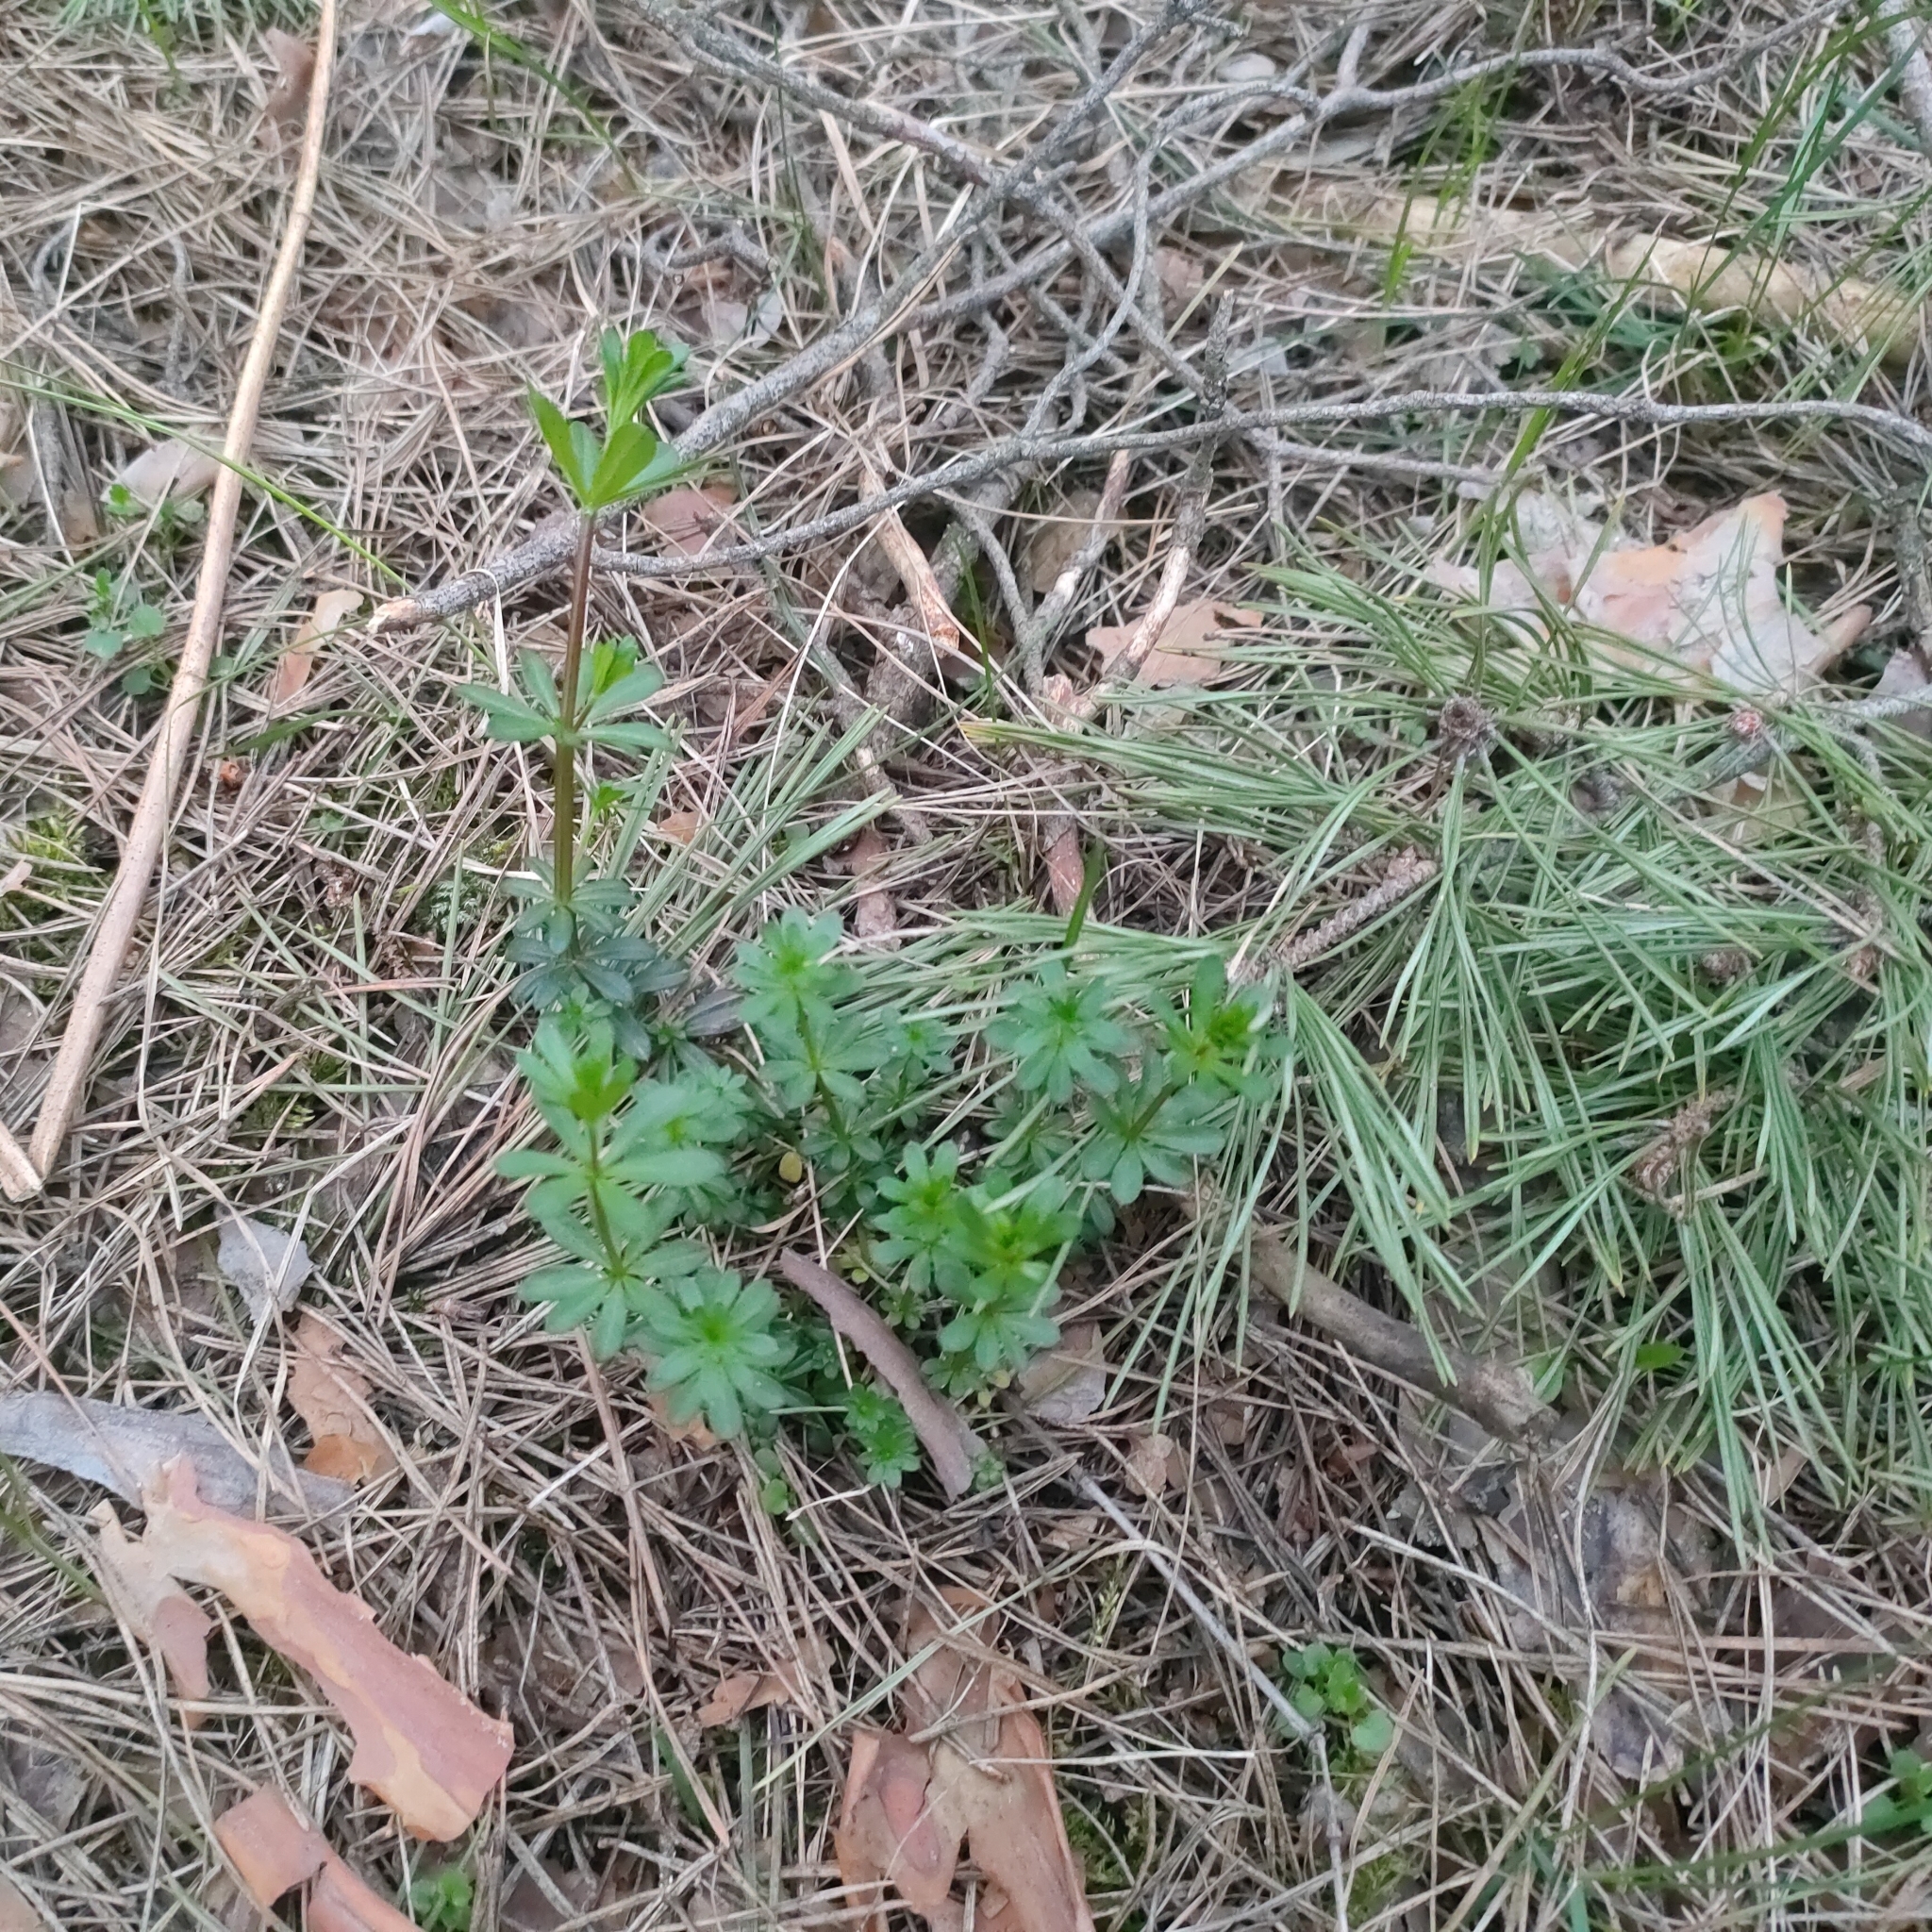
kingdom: Plantae
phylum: Tracheophyta
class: Magnoliopsida
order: Gentianales
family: Rubiaceae
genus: Galium
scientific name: Galium mollugo
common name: Hedge bedstraw
